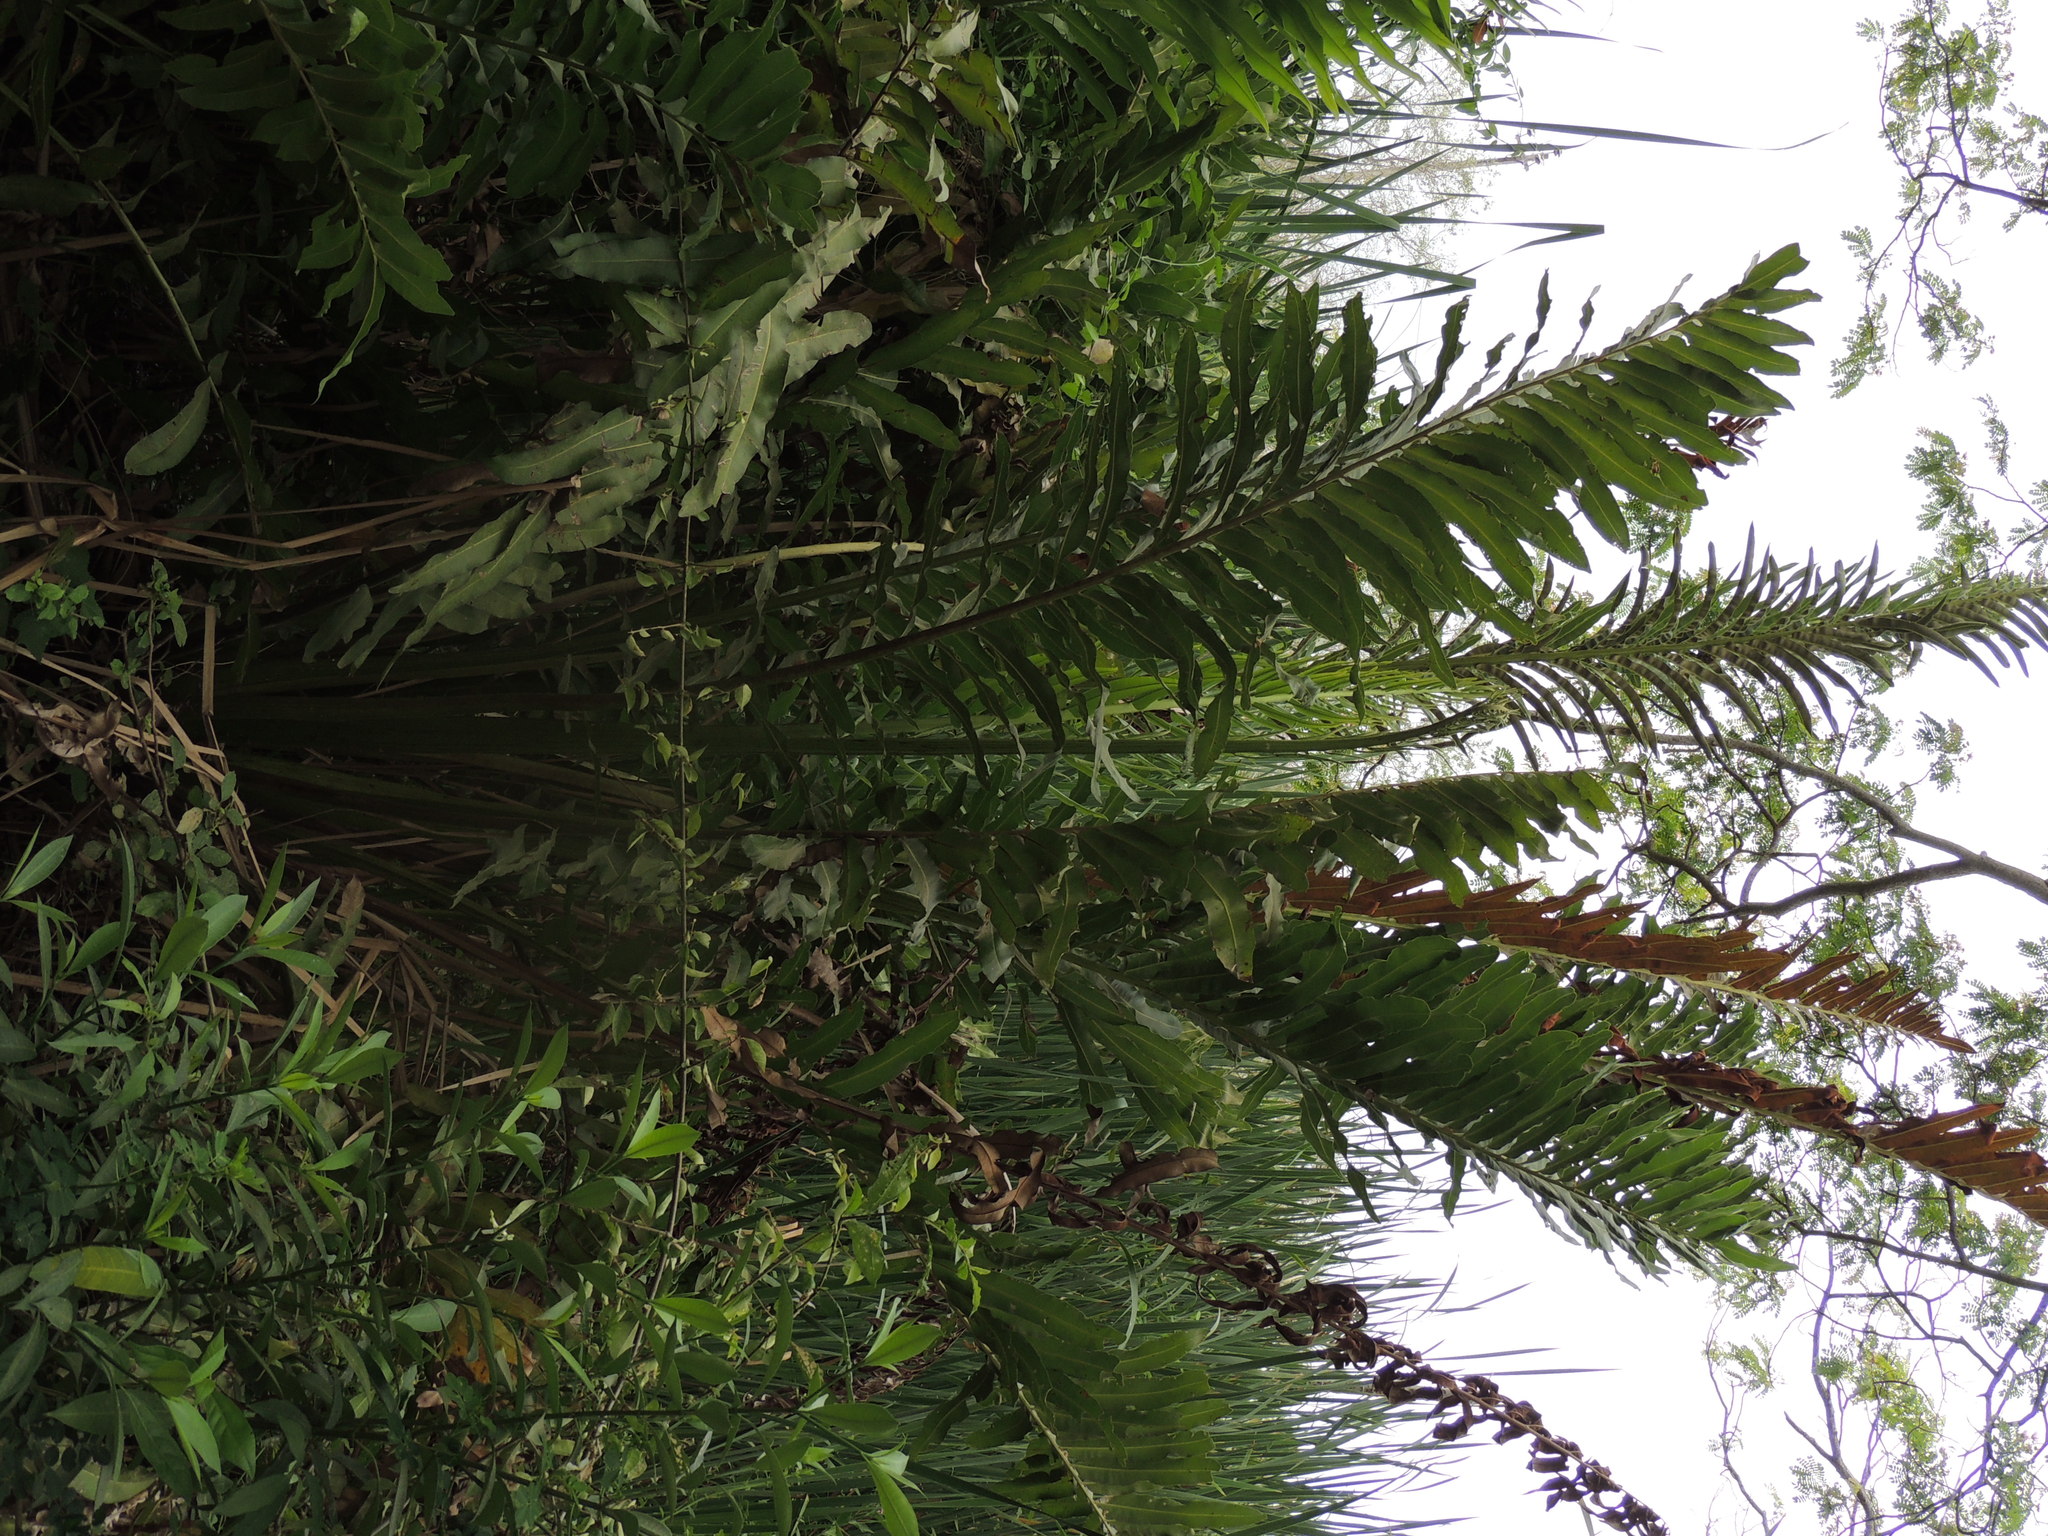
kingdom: Plantae
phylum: Tracheophyta
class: Polypodiopsida
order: Polypodiales
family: Pteridaceae
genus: Acrostichum
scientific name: Acrostichum danaeifolium
